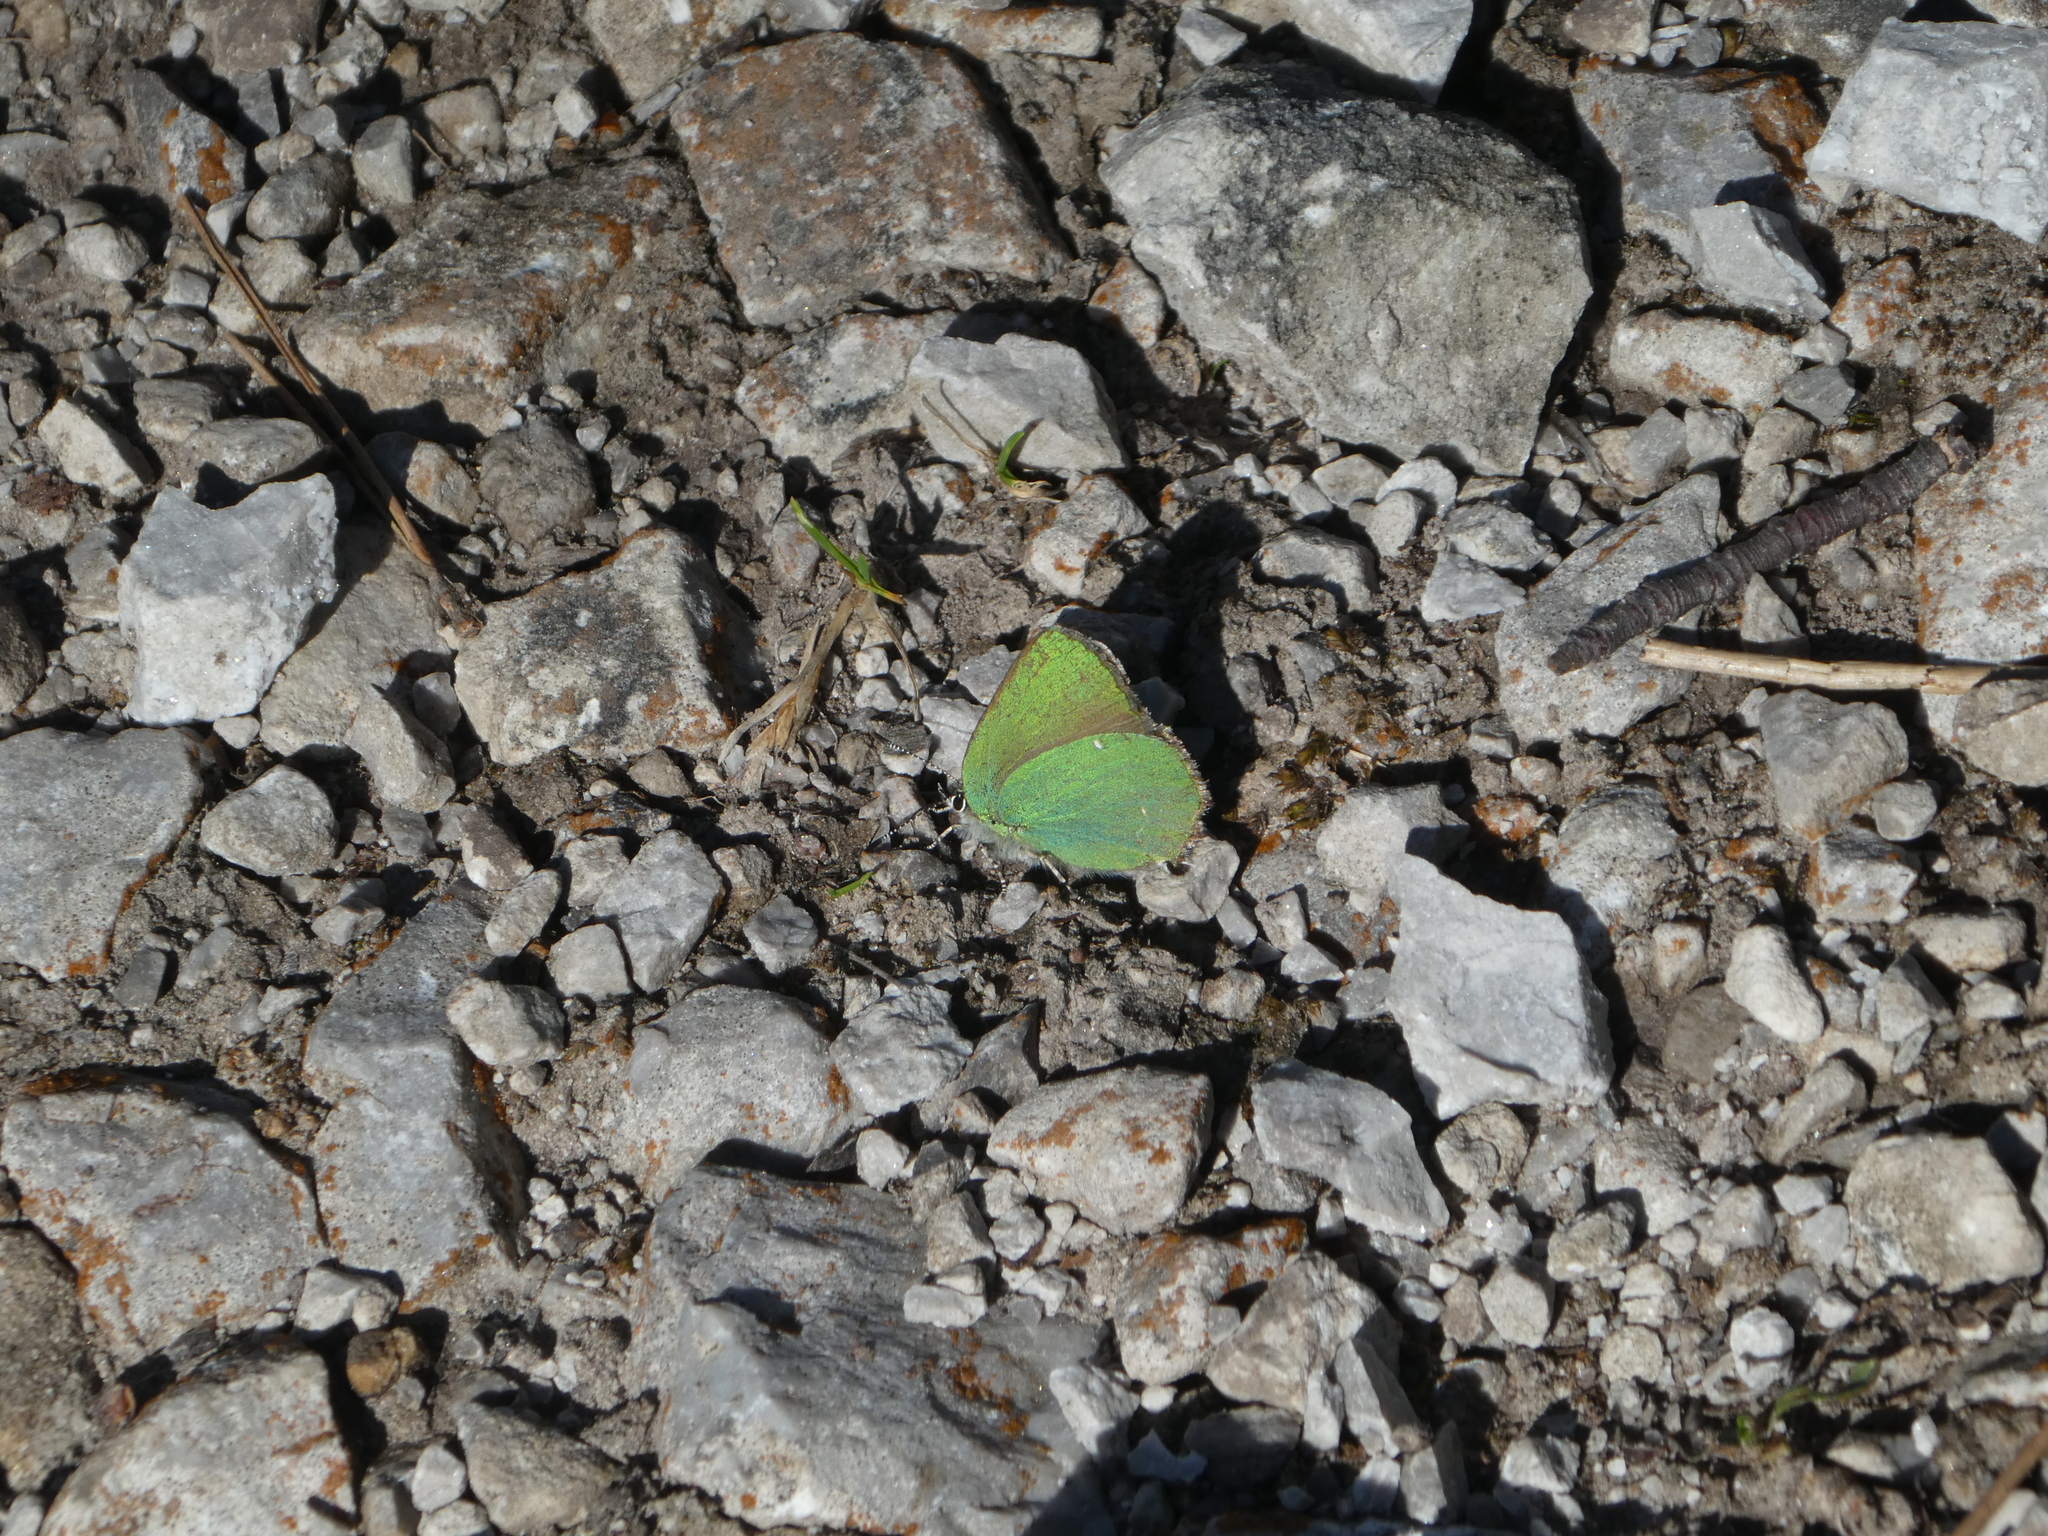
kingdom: Animalia
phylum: Arthropoda
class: Insecta
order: Lepidoptera
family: Lycaenidae
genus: Callophrys
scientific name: Callophrys rubi
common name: Green hairstreak
